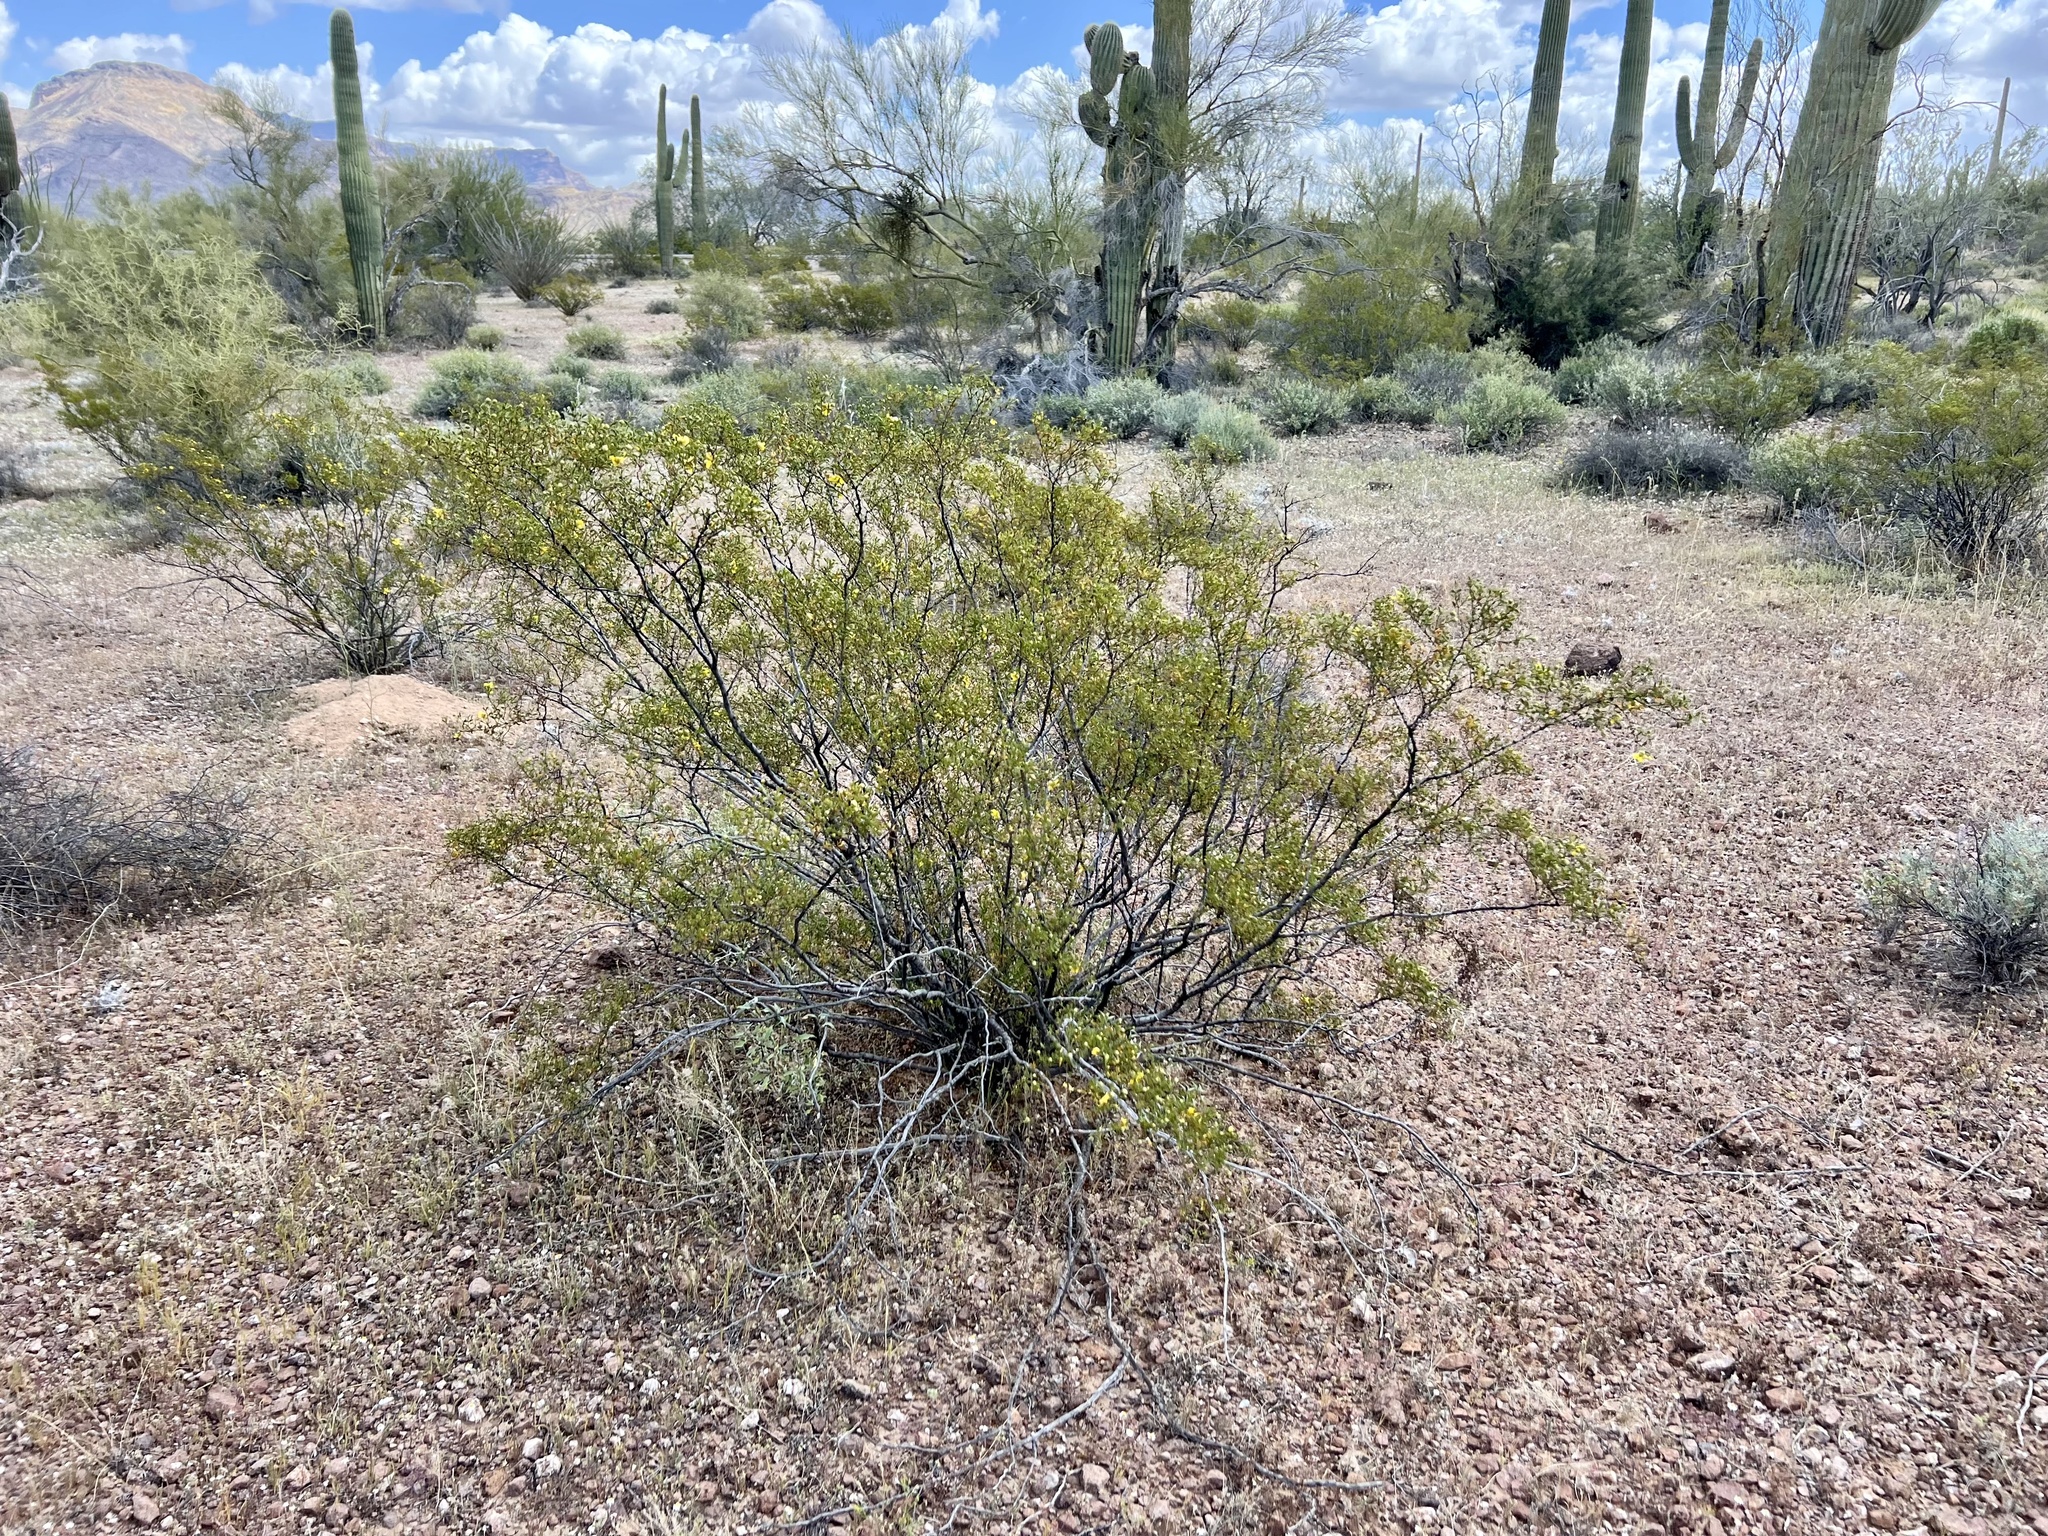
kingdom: Plantae
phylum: Tracheophyta
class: Magnoliopsida
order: Zygophyllales
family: Zygophyllaceae
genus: Larrea
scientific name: Larrea tridentata
